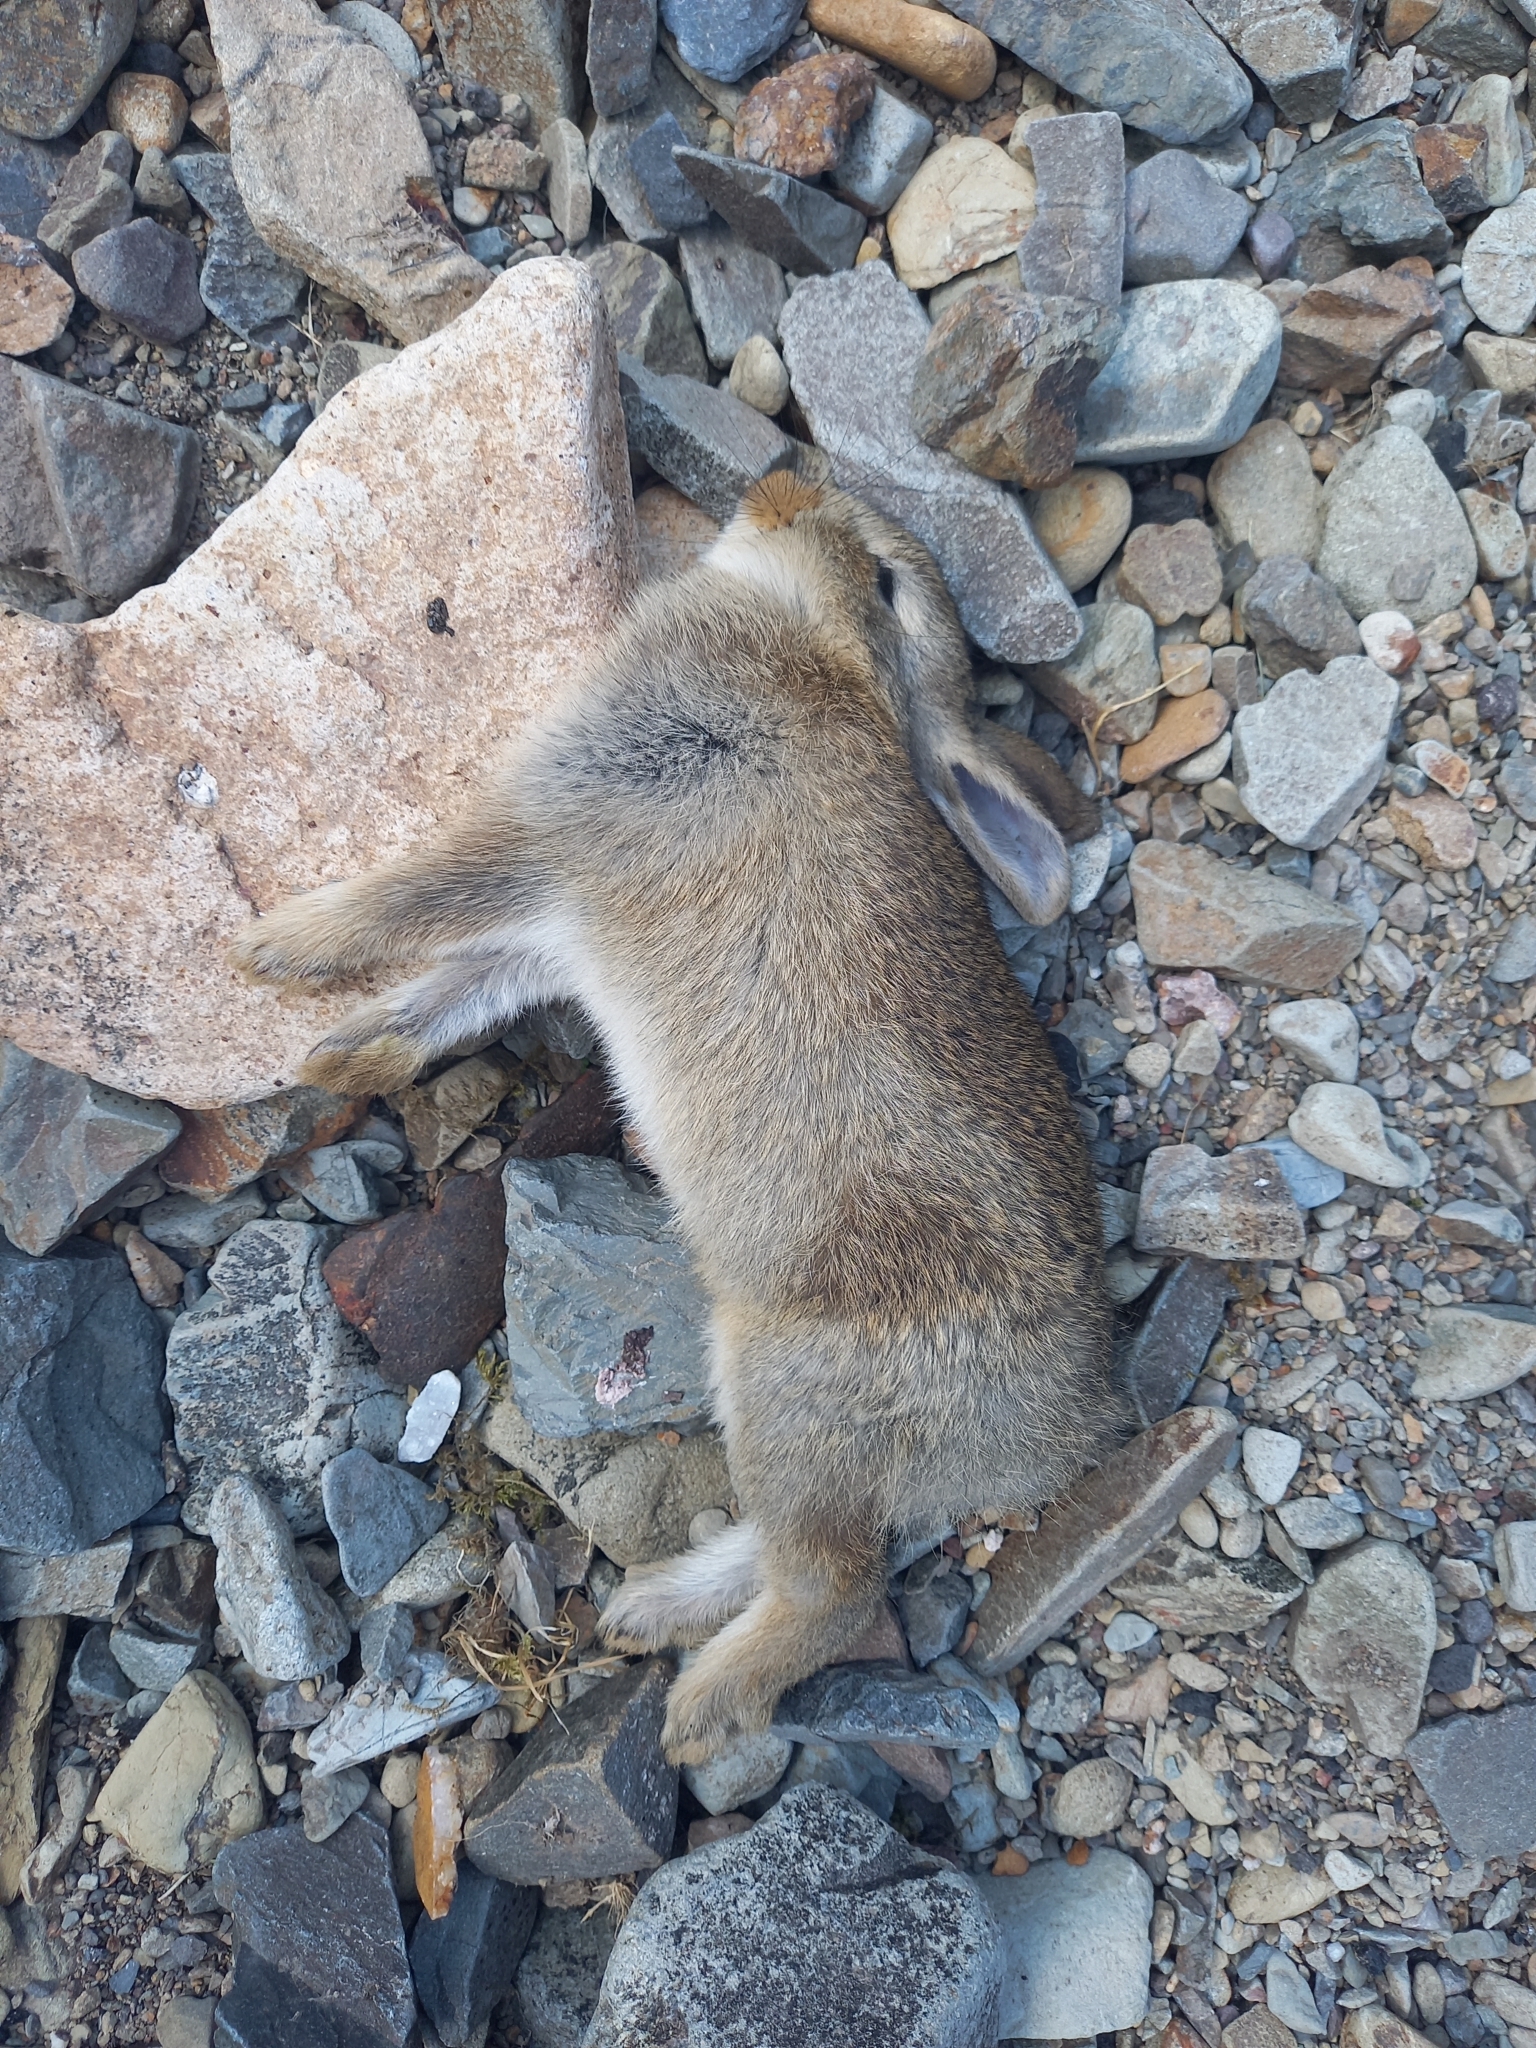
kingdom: Animalia
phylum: Chordata
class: Mammalia
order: Lagomorpha
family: Leporidae
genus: Oryctolagus
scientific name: Oryctolagus cuniculus
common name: European rabbit
